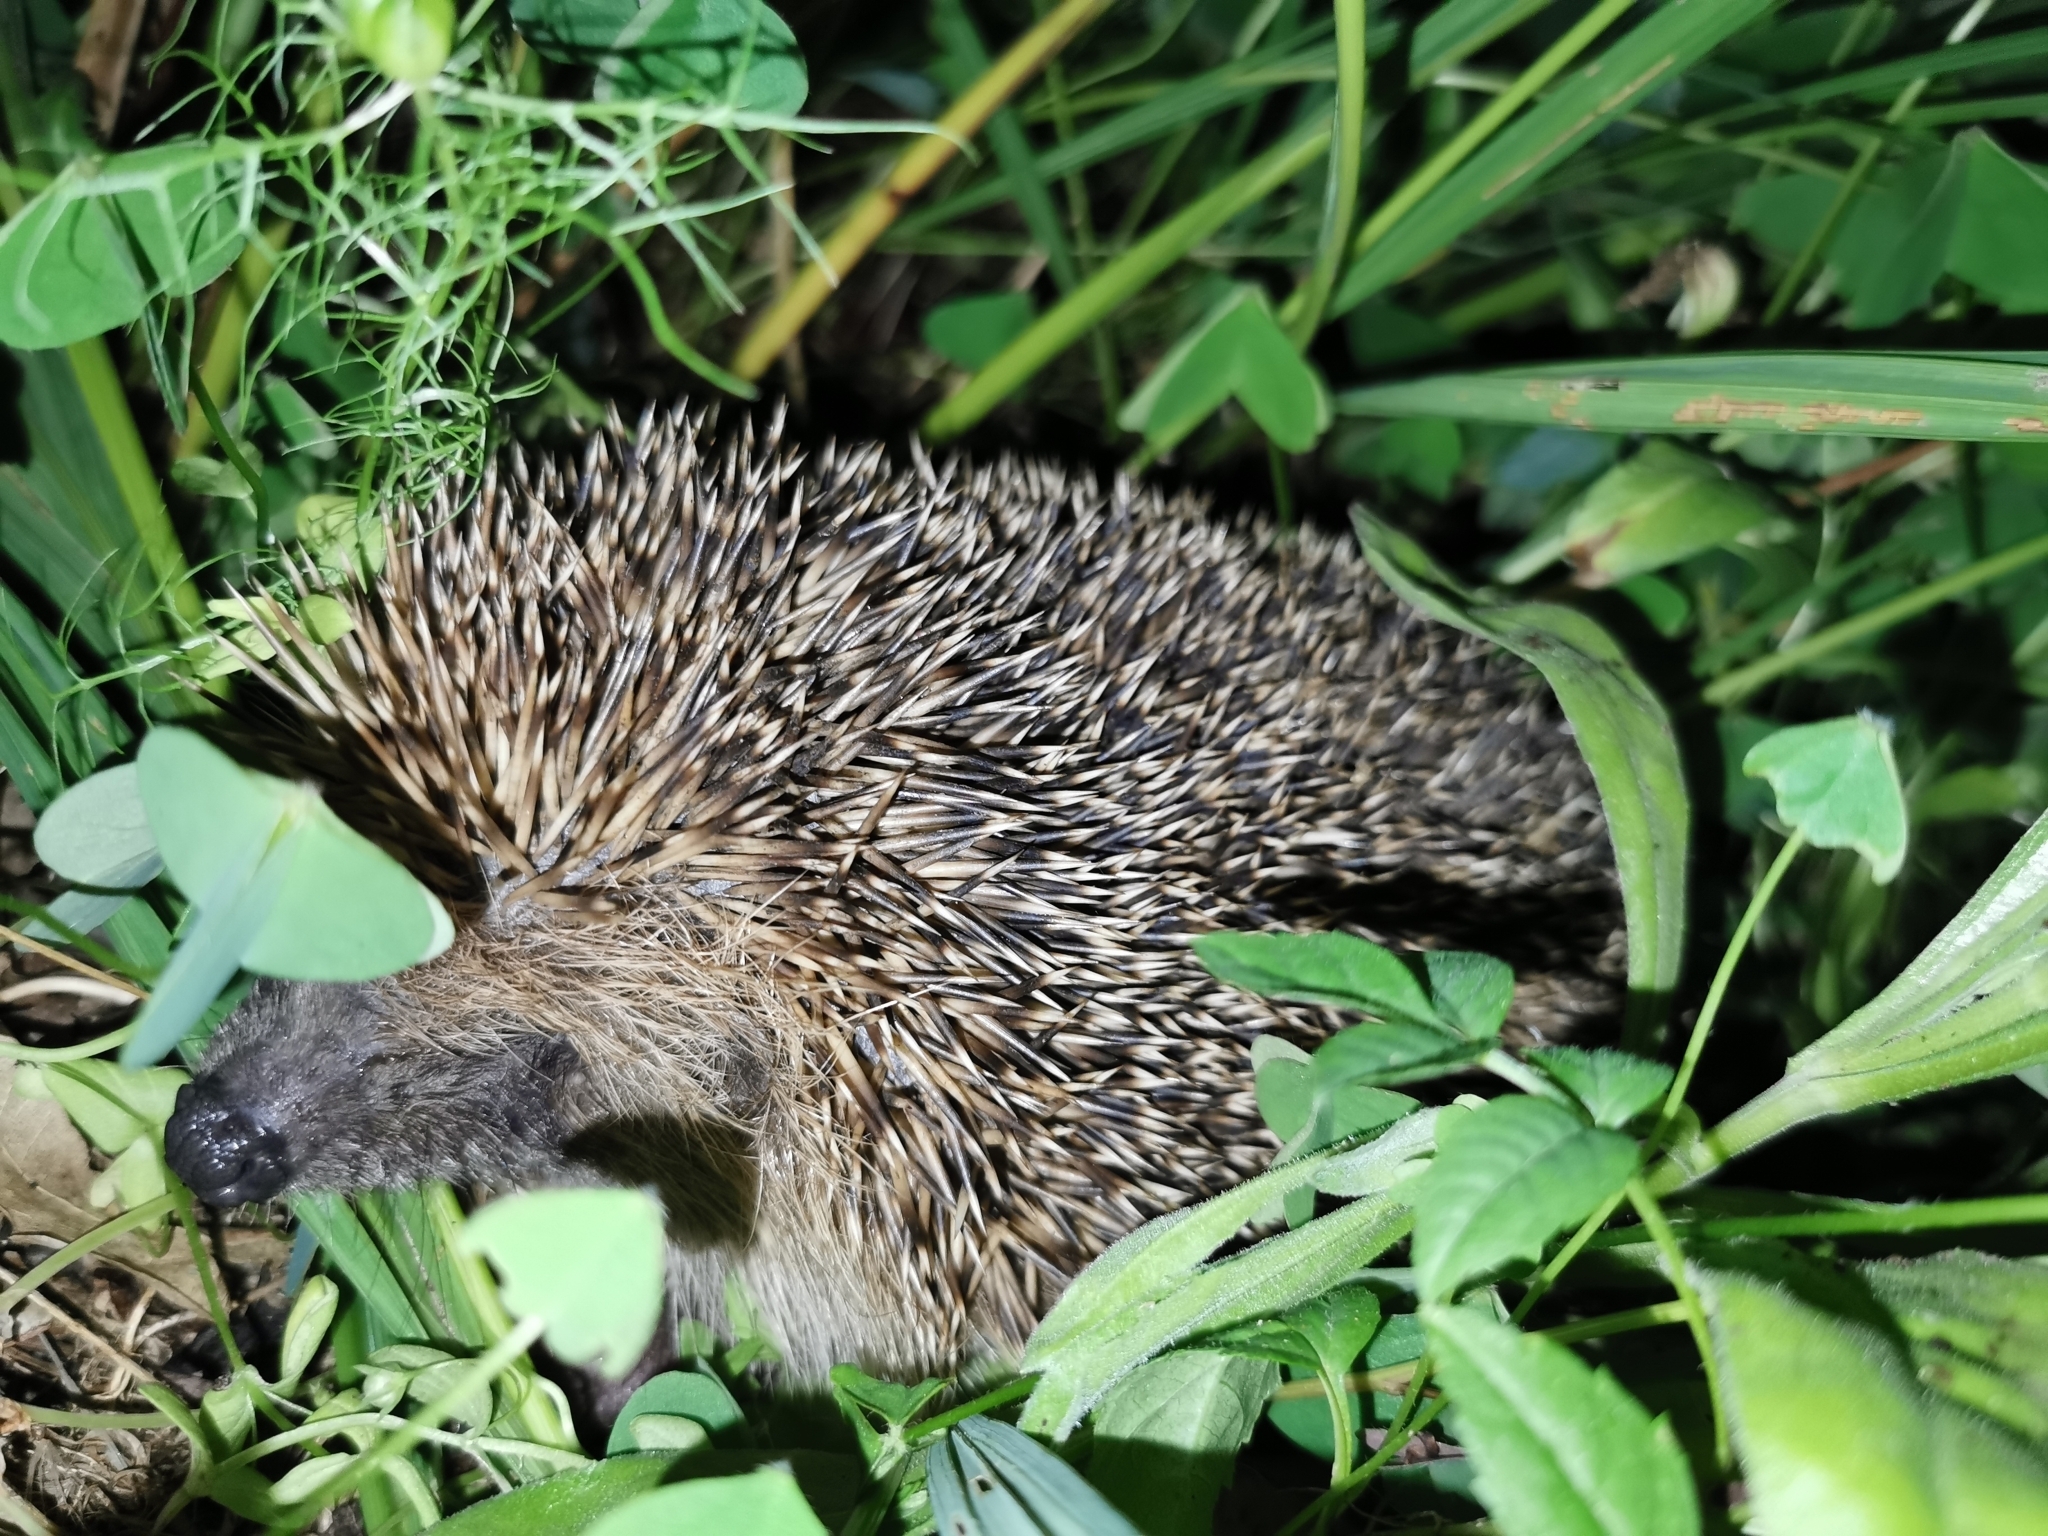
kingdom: Animalia
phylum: Chordata
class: Mammalia
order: Erinaceomorpha
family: Erinaceidae
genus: Erinaceus
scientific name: Erinaceus europaeus
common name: West european hedgehog
